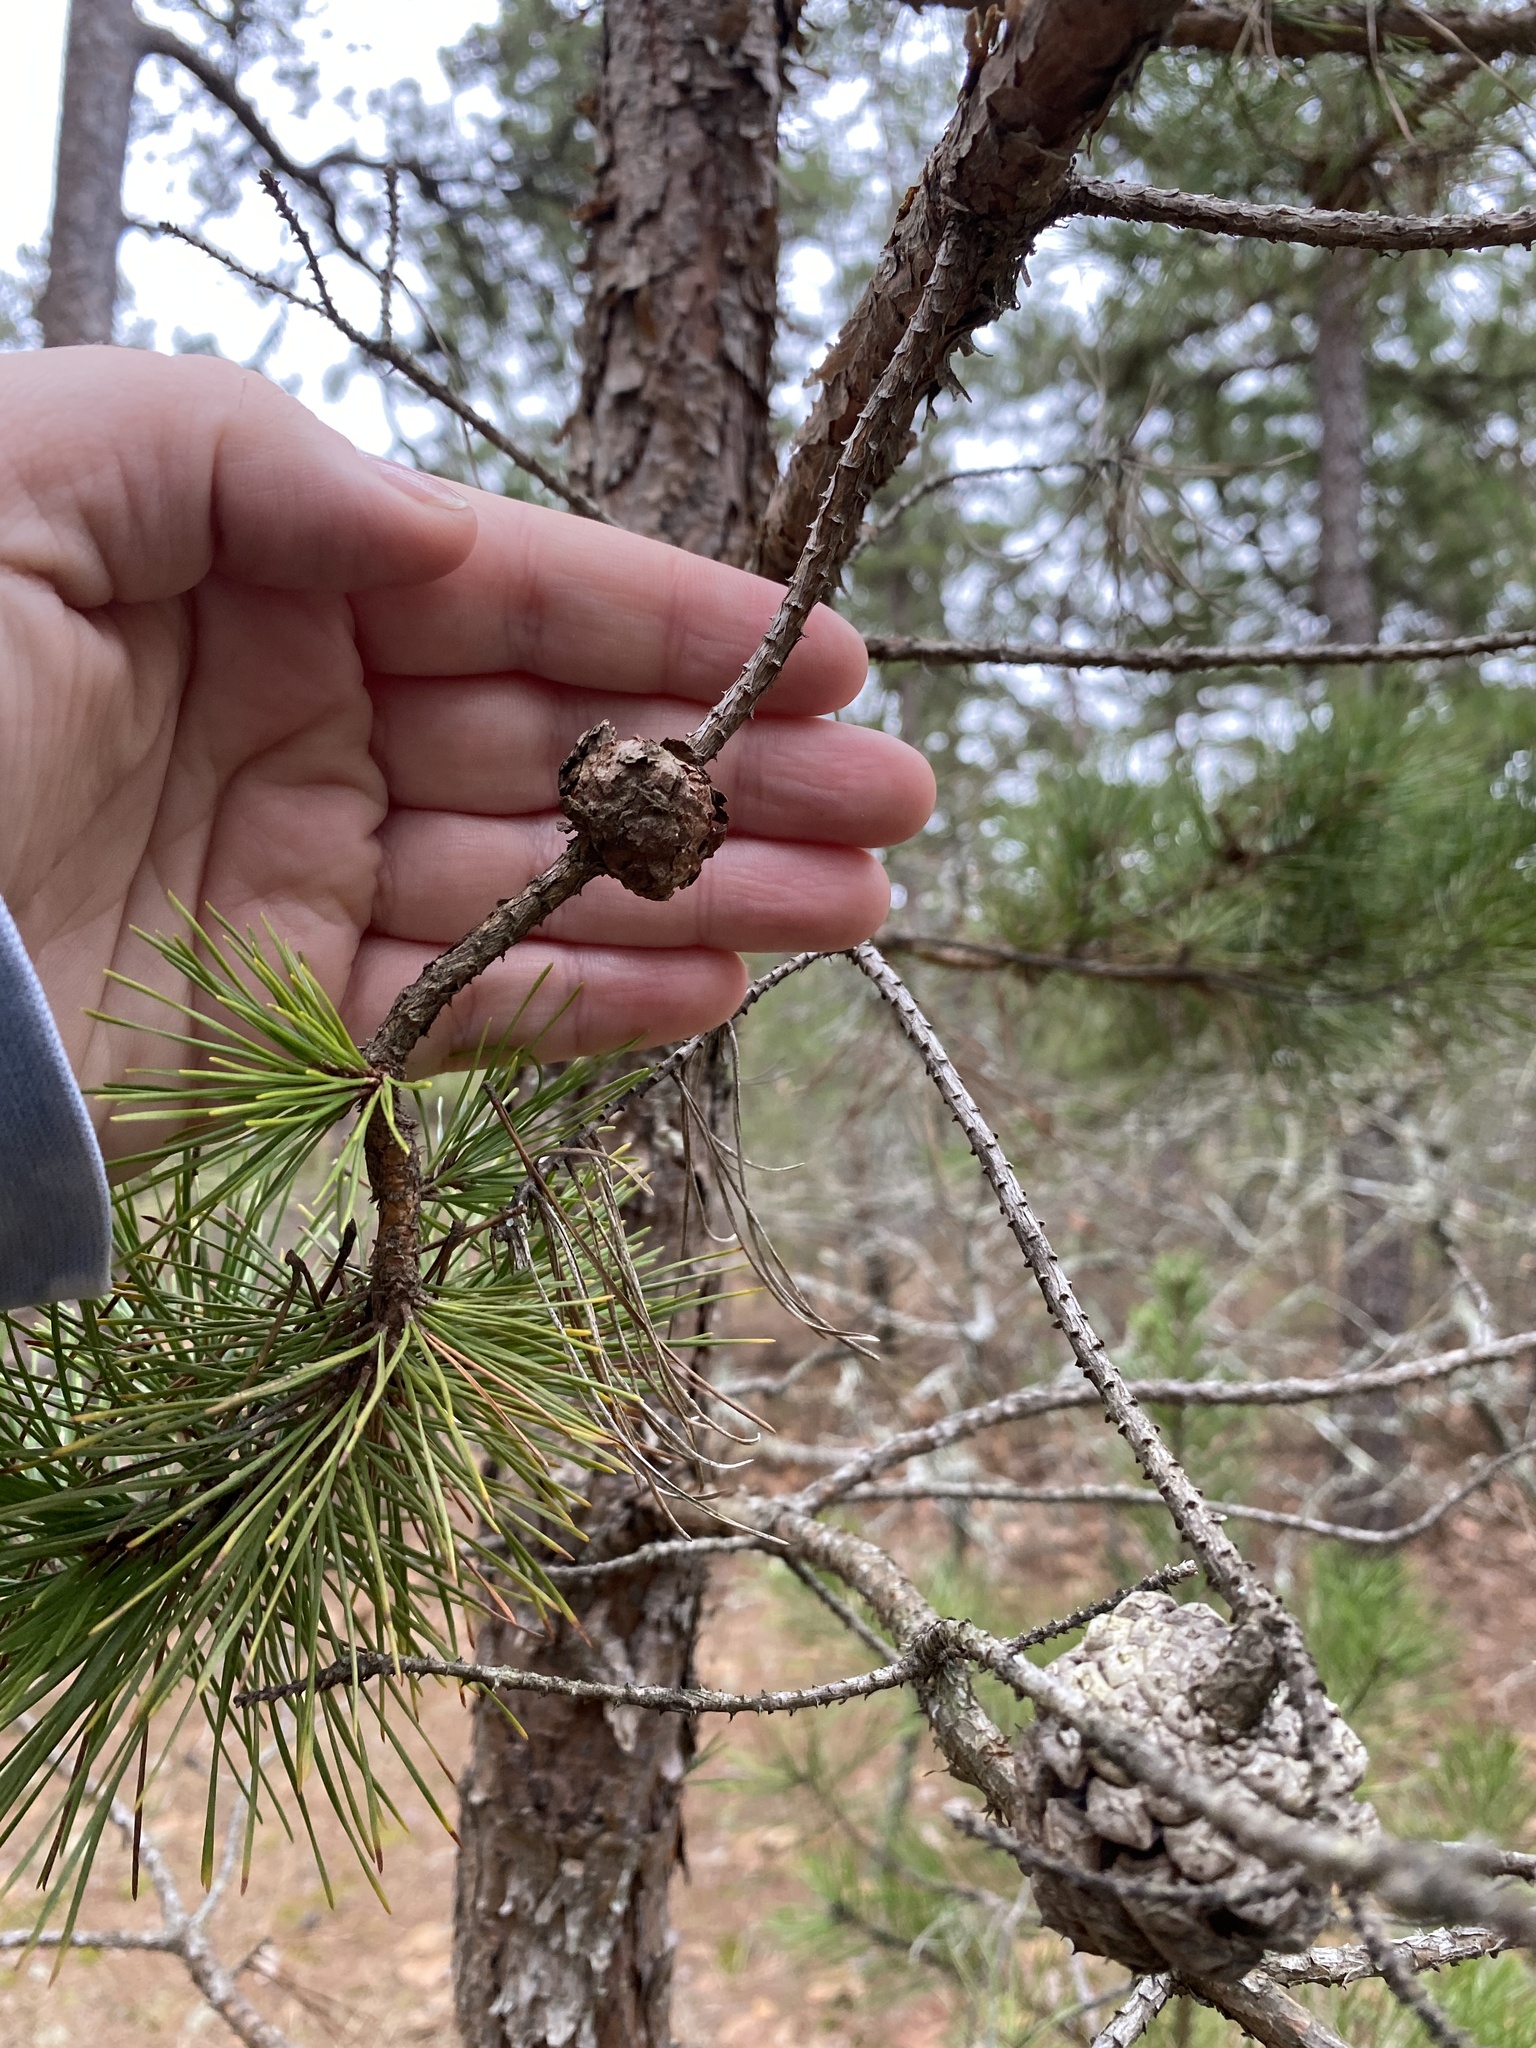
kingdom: Fungi
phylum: Basidiomycota
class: Pucciniomycetes
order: Pucciniales
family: Cronartiaceae
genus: Cronartium
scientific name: Cronartium quercuum
